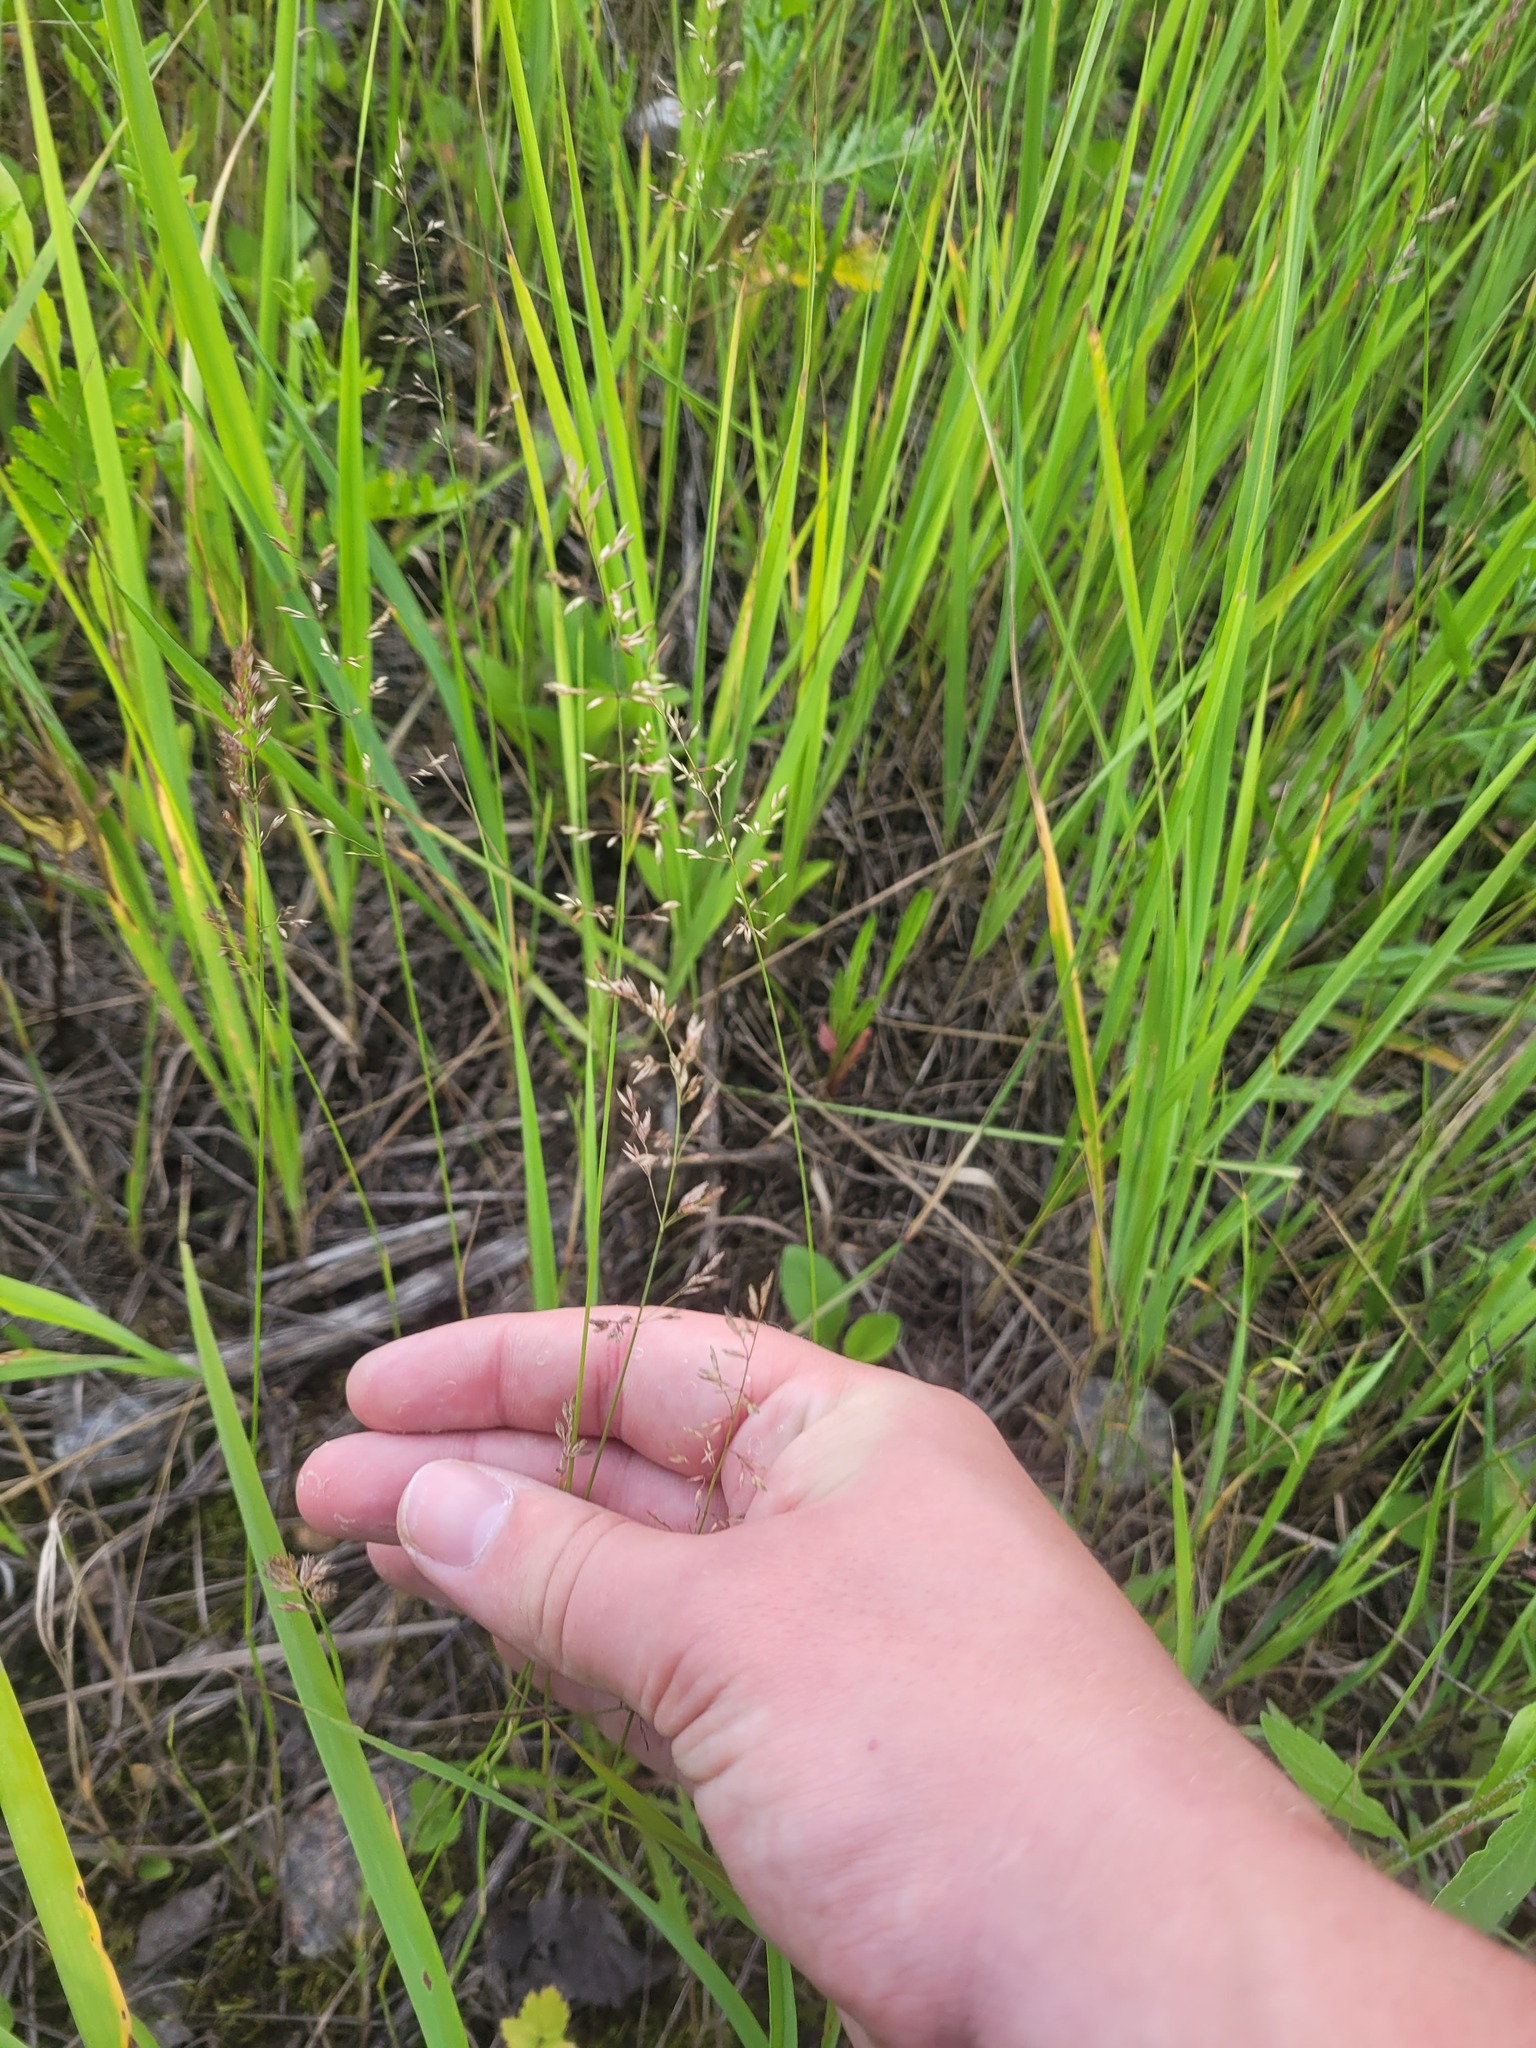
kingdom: Plantae
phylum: Tracheophyta
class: Liliopsida
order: Poales
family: Poaceae
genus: Poa
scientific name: Poa compressa
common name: Canada bluegrass
